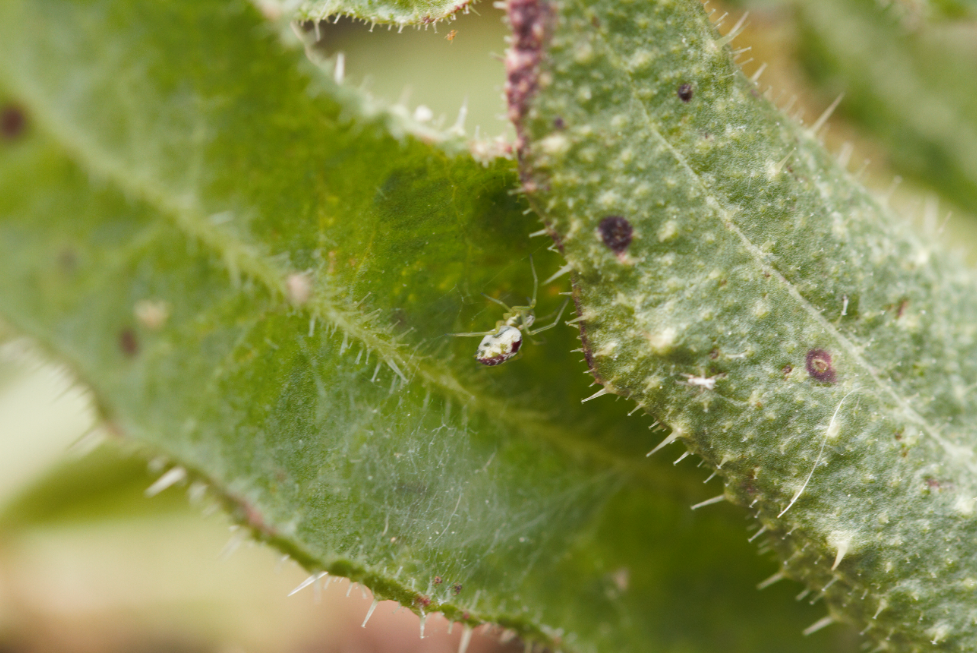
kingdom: Animalia
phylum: Arthropoda
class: Arachnida
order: Araneae
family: Dictynidae
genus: Nigma
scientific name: Nigma puella
